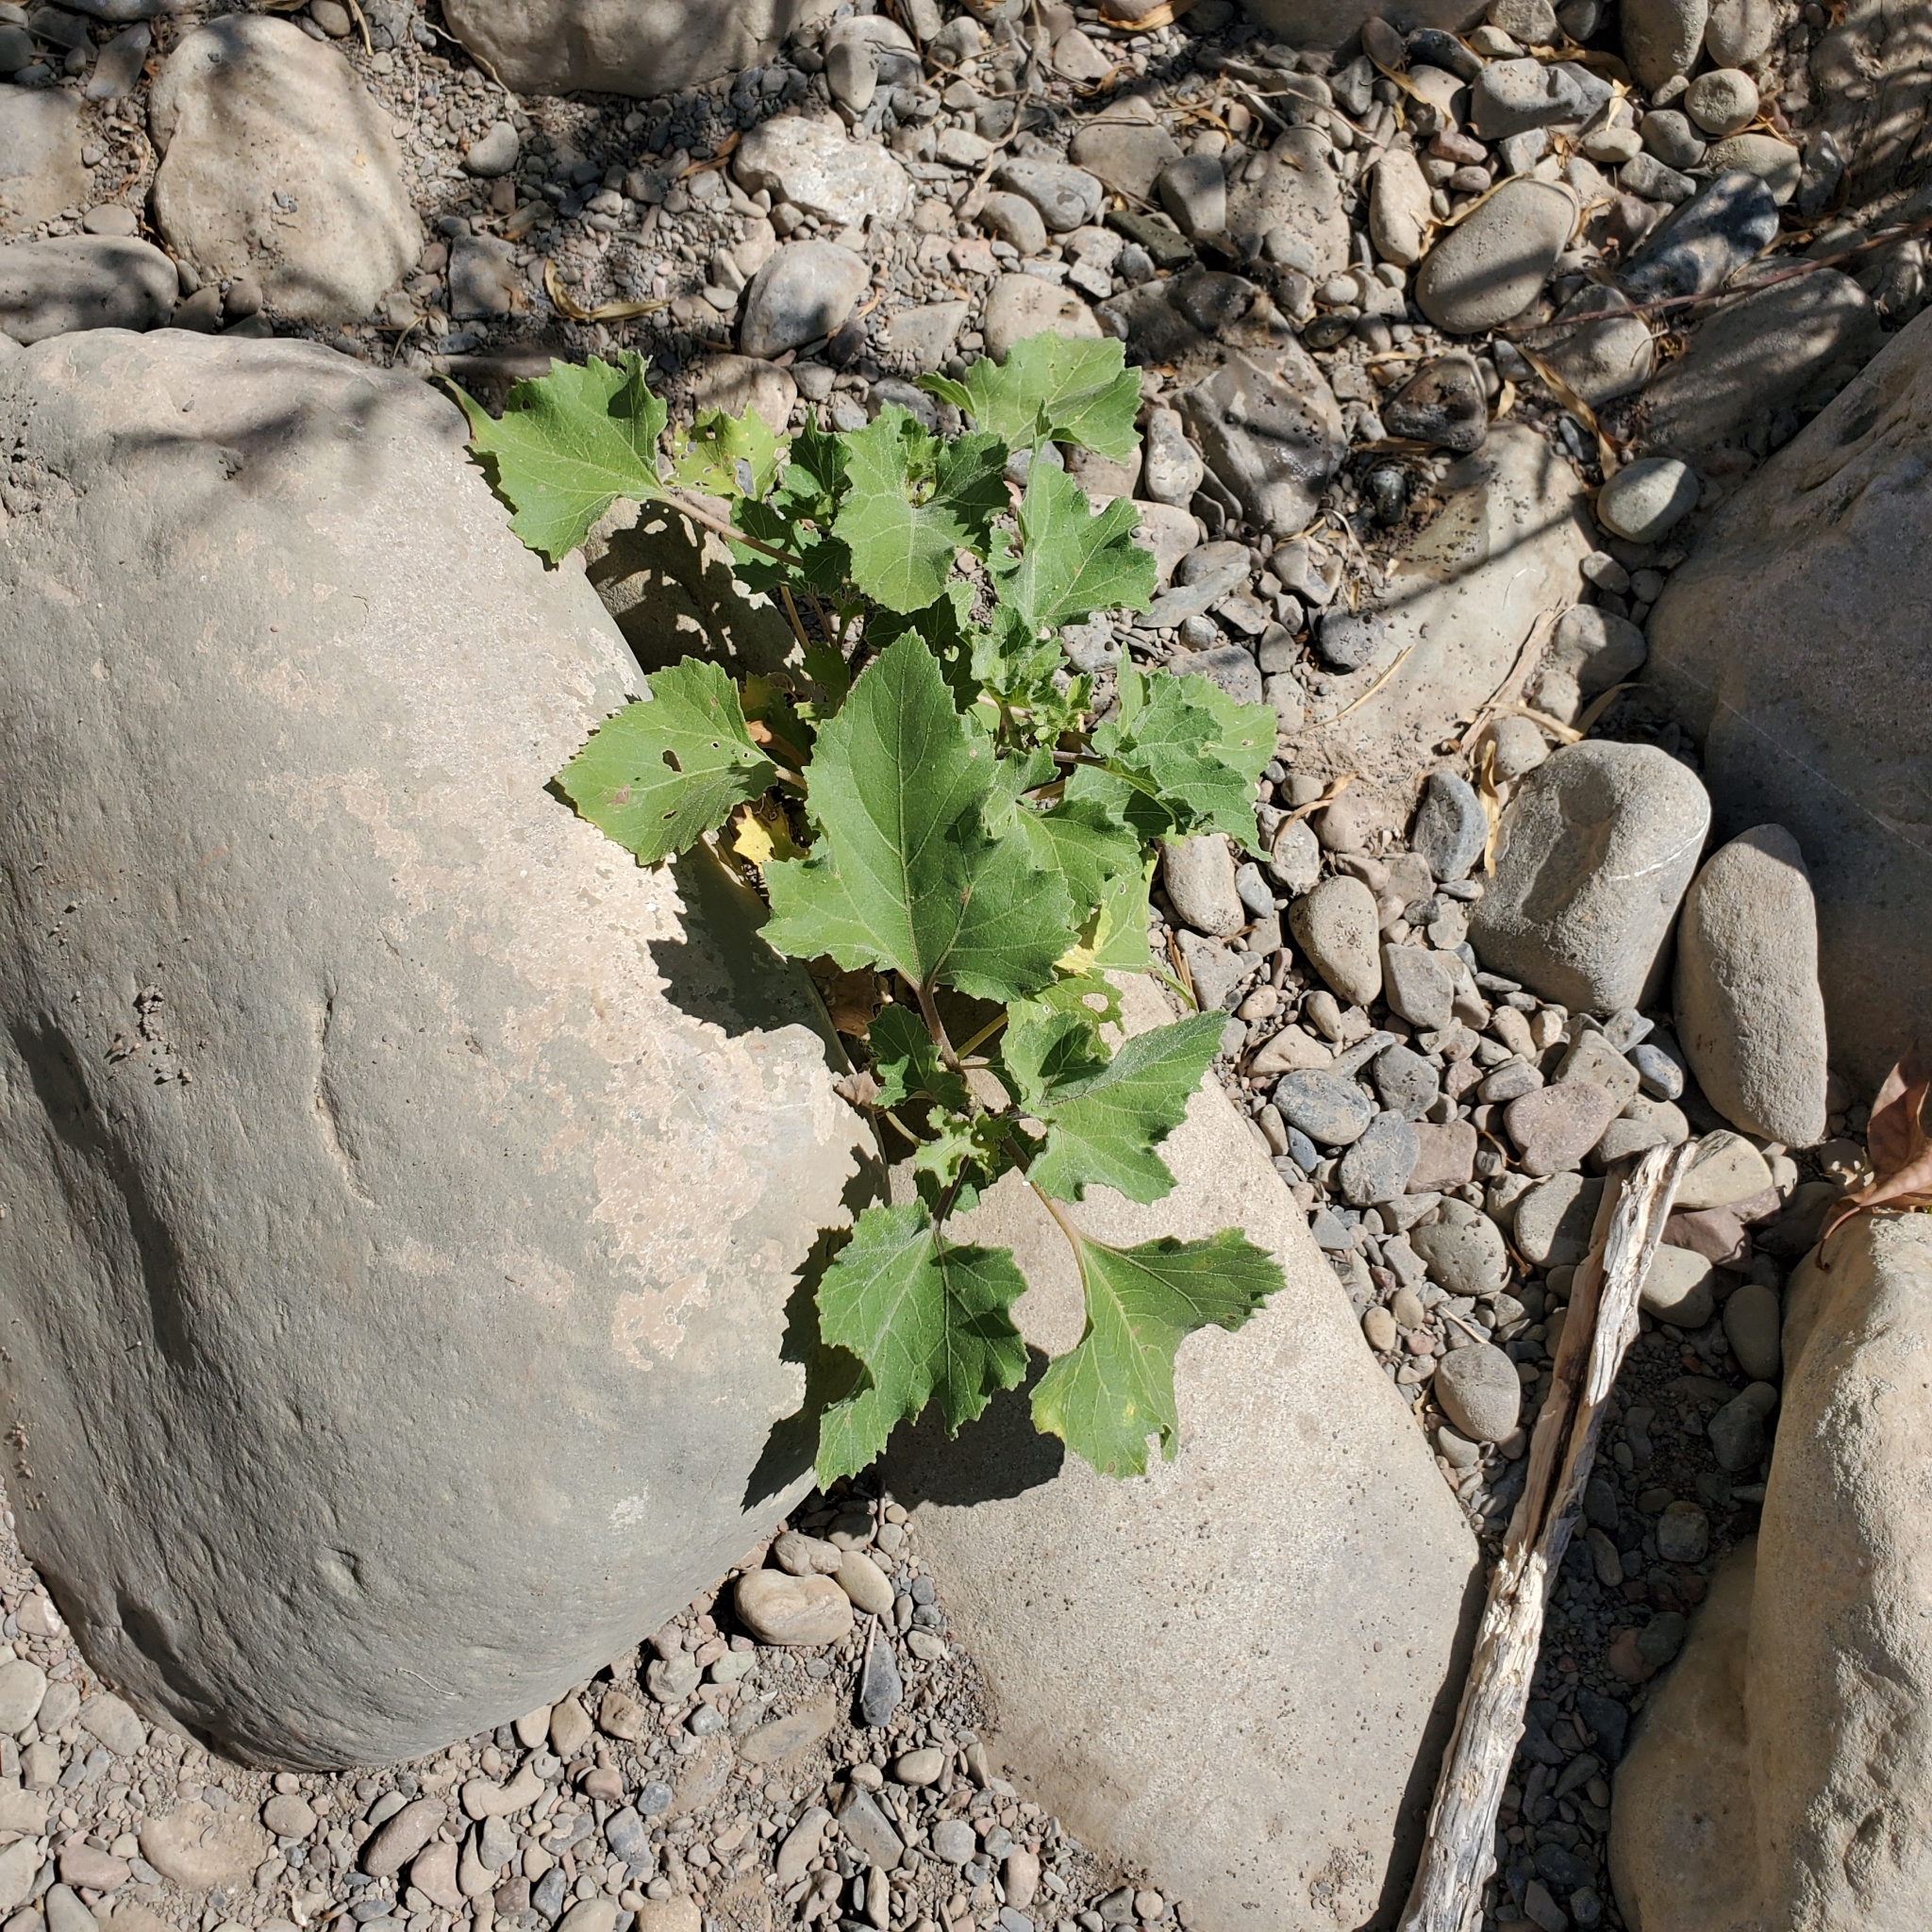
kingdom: Plantae
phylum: Tracheophyta
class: Magnoliopsida
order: Asterales
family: Asteraceae
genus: Xanthium
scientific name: Xanthium strumarium
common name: Rough cocklebur
